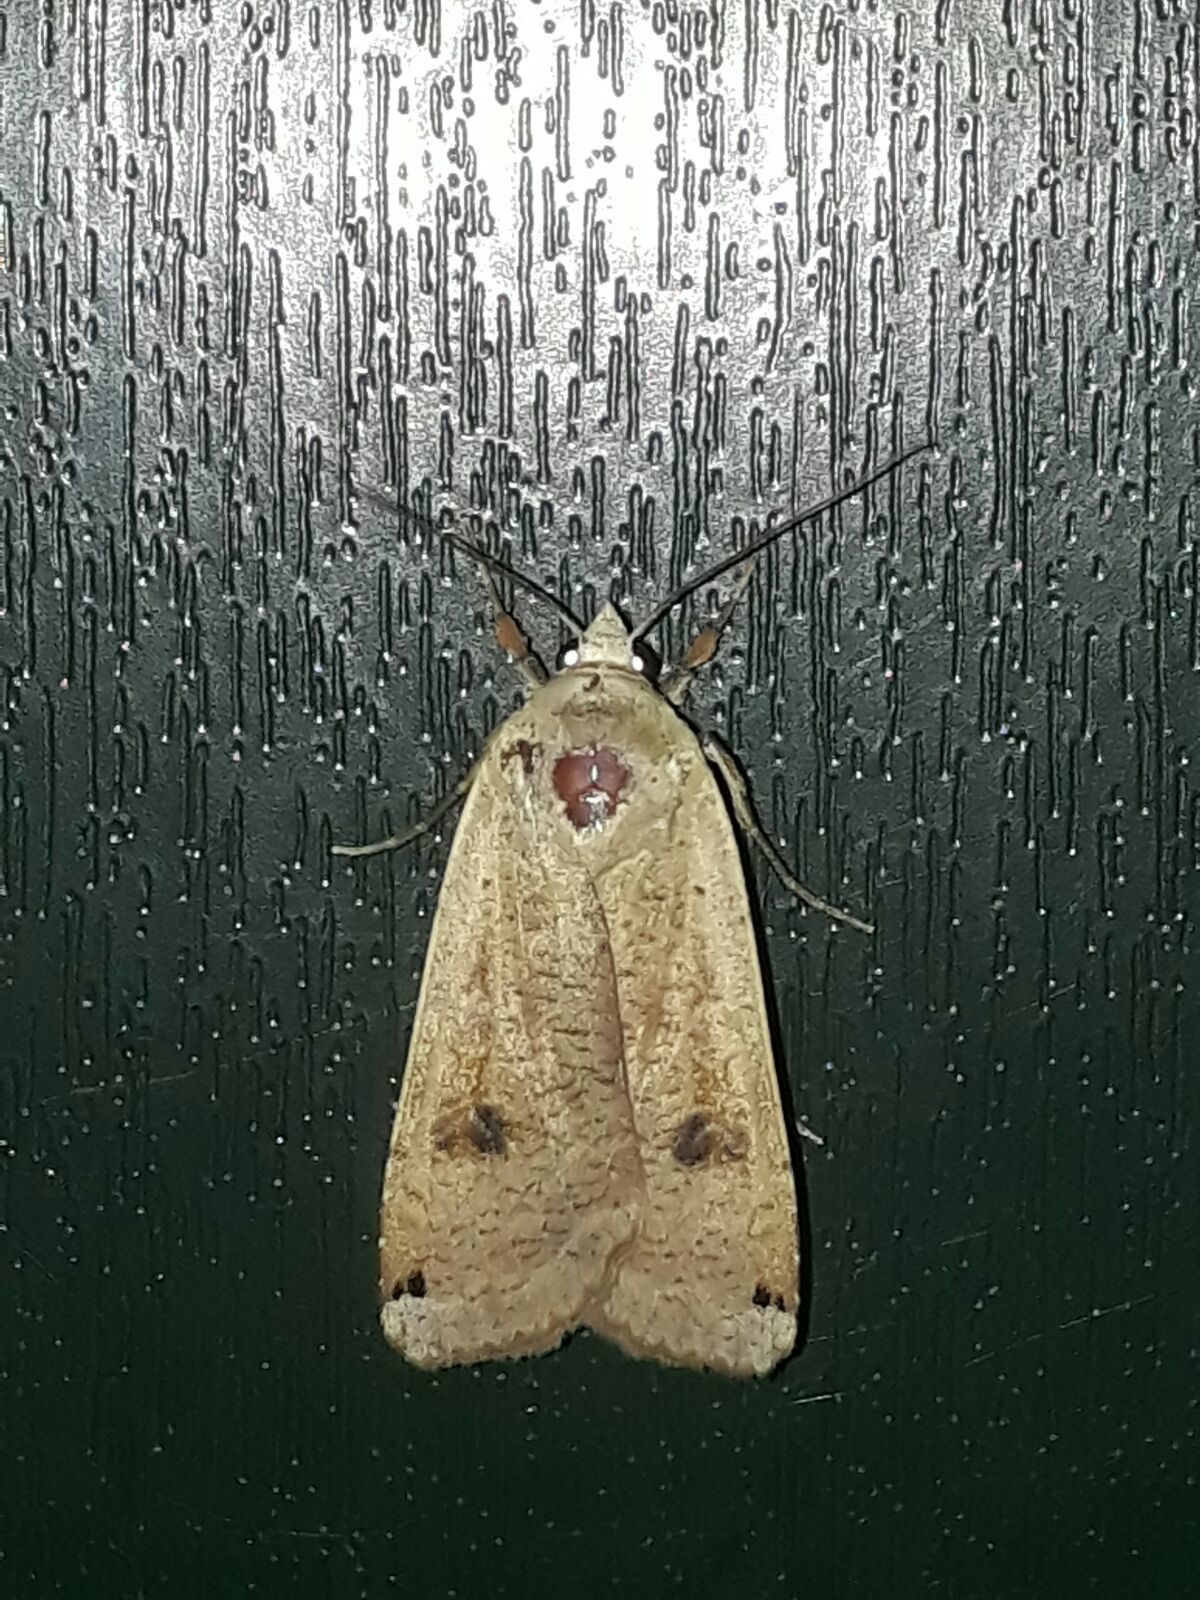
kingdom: Animalia
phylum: Arthropoda
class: Insecta
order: Lepidoptera
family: Noctuidae
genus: Noctua
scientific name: Noctua pronuba
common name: Large yellow underwing
